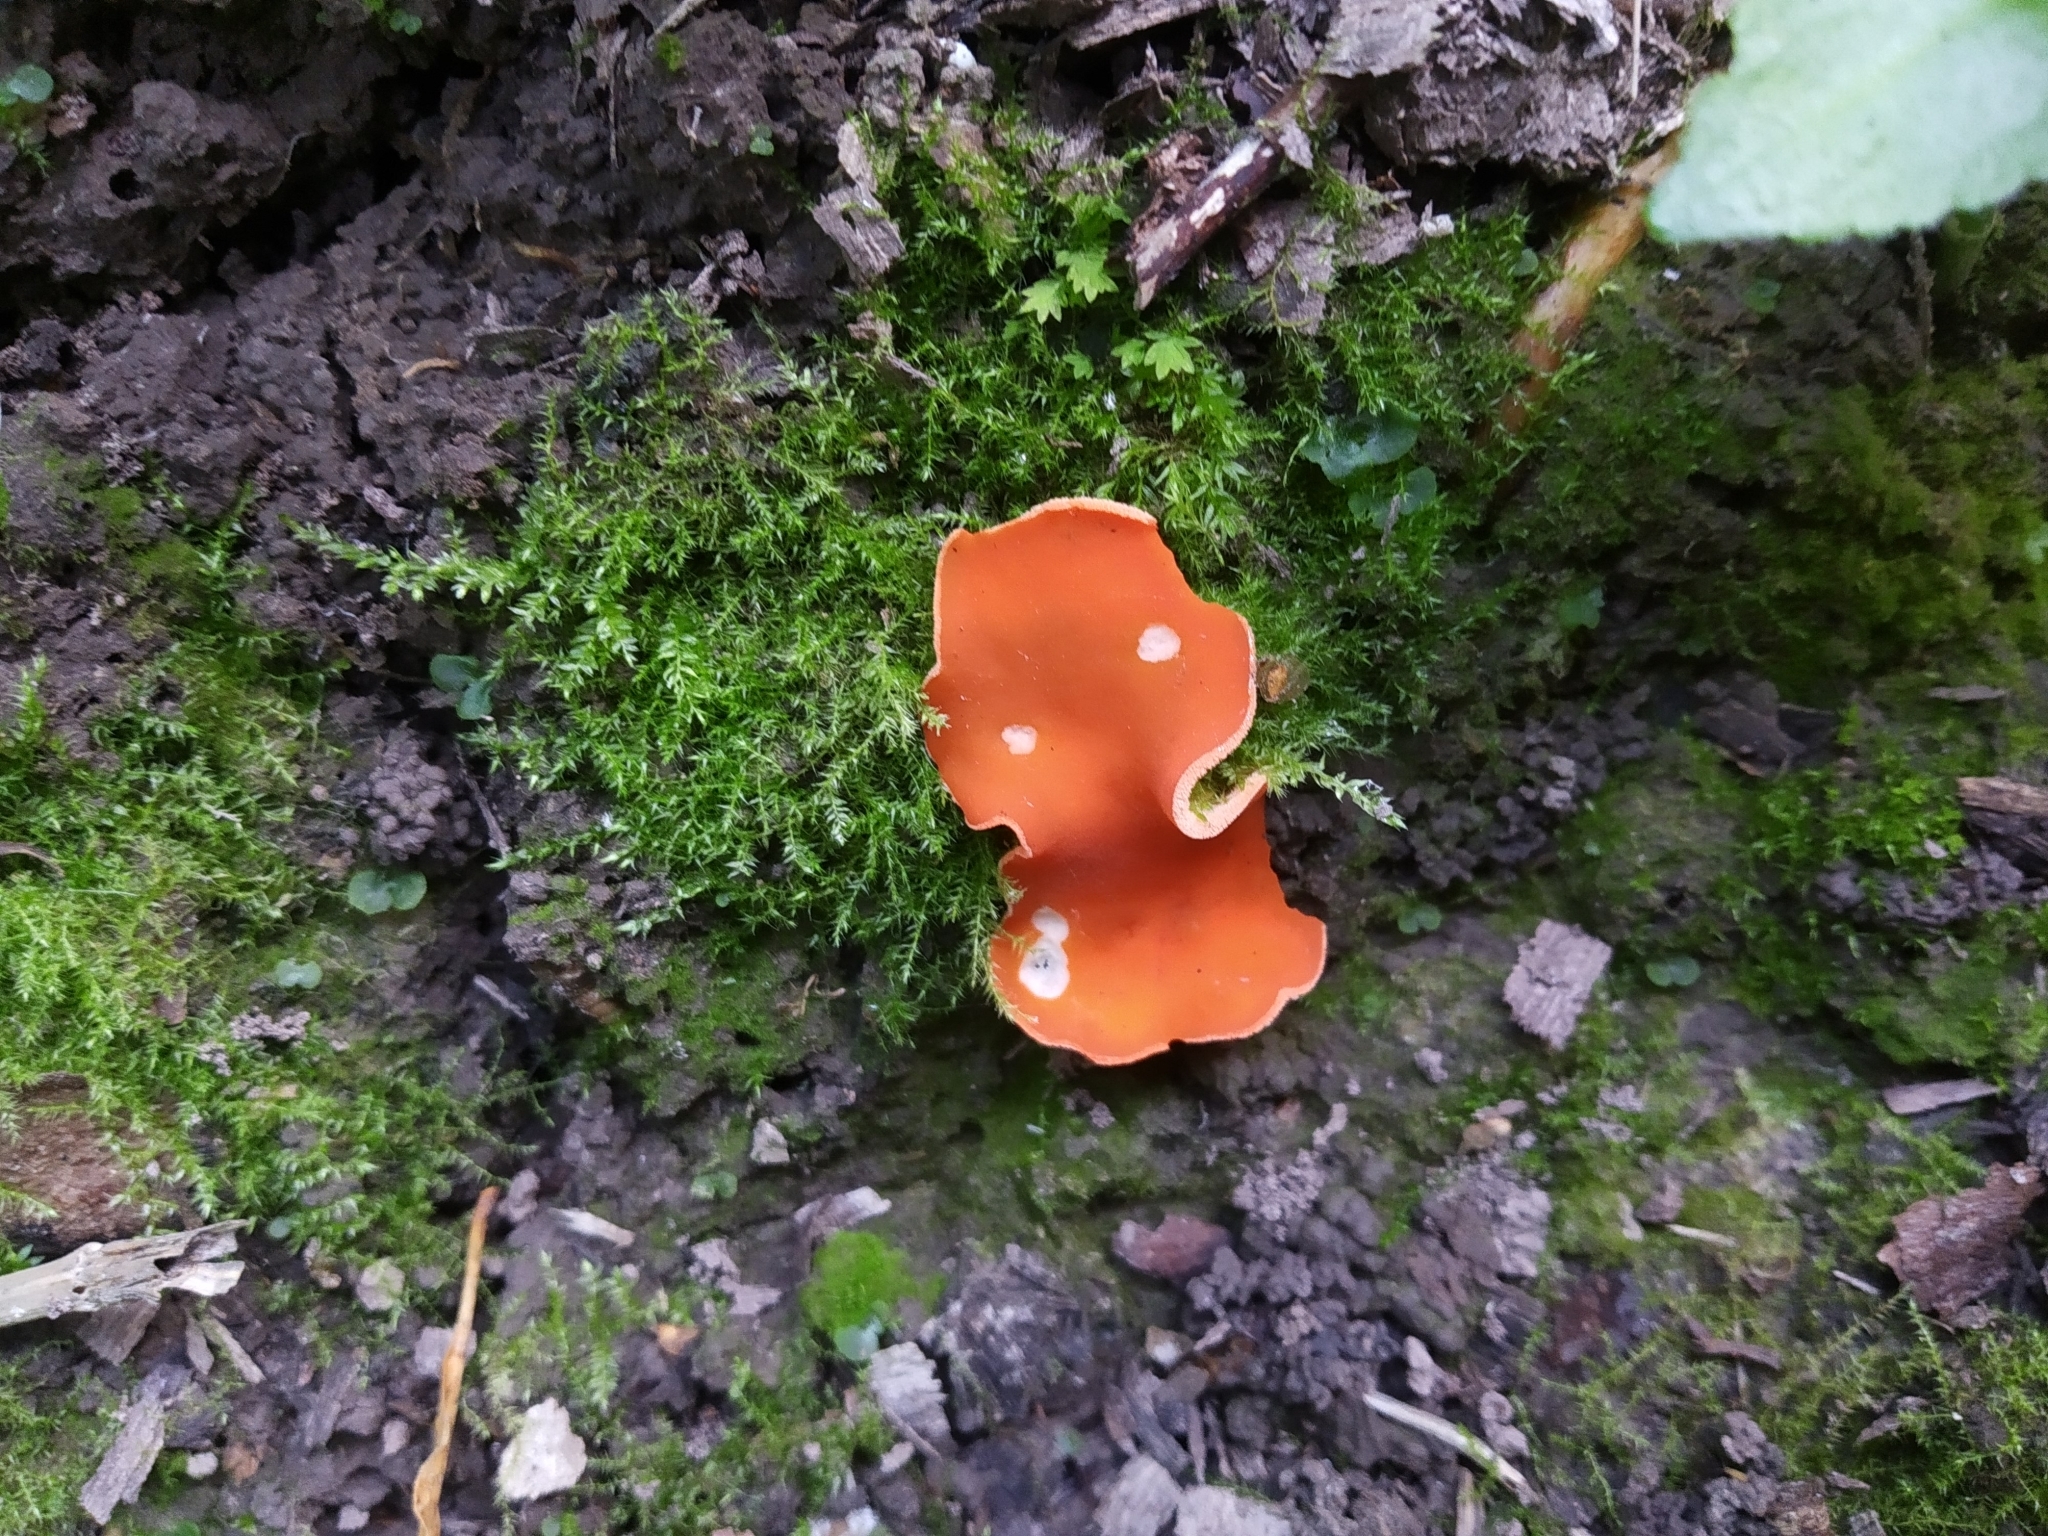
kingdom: Fungi
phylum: Ascomycota
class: Pezizomycetes
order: Pezizales
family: Pyronemataceae
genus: Aleuria
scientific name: Aleuria aurantia
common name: Orange peel fungus
